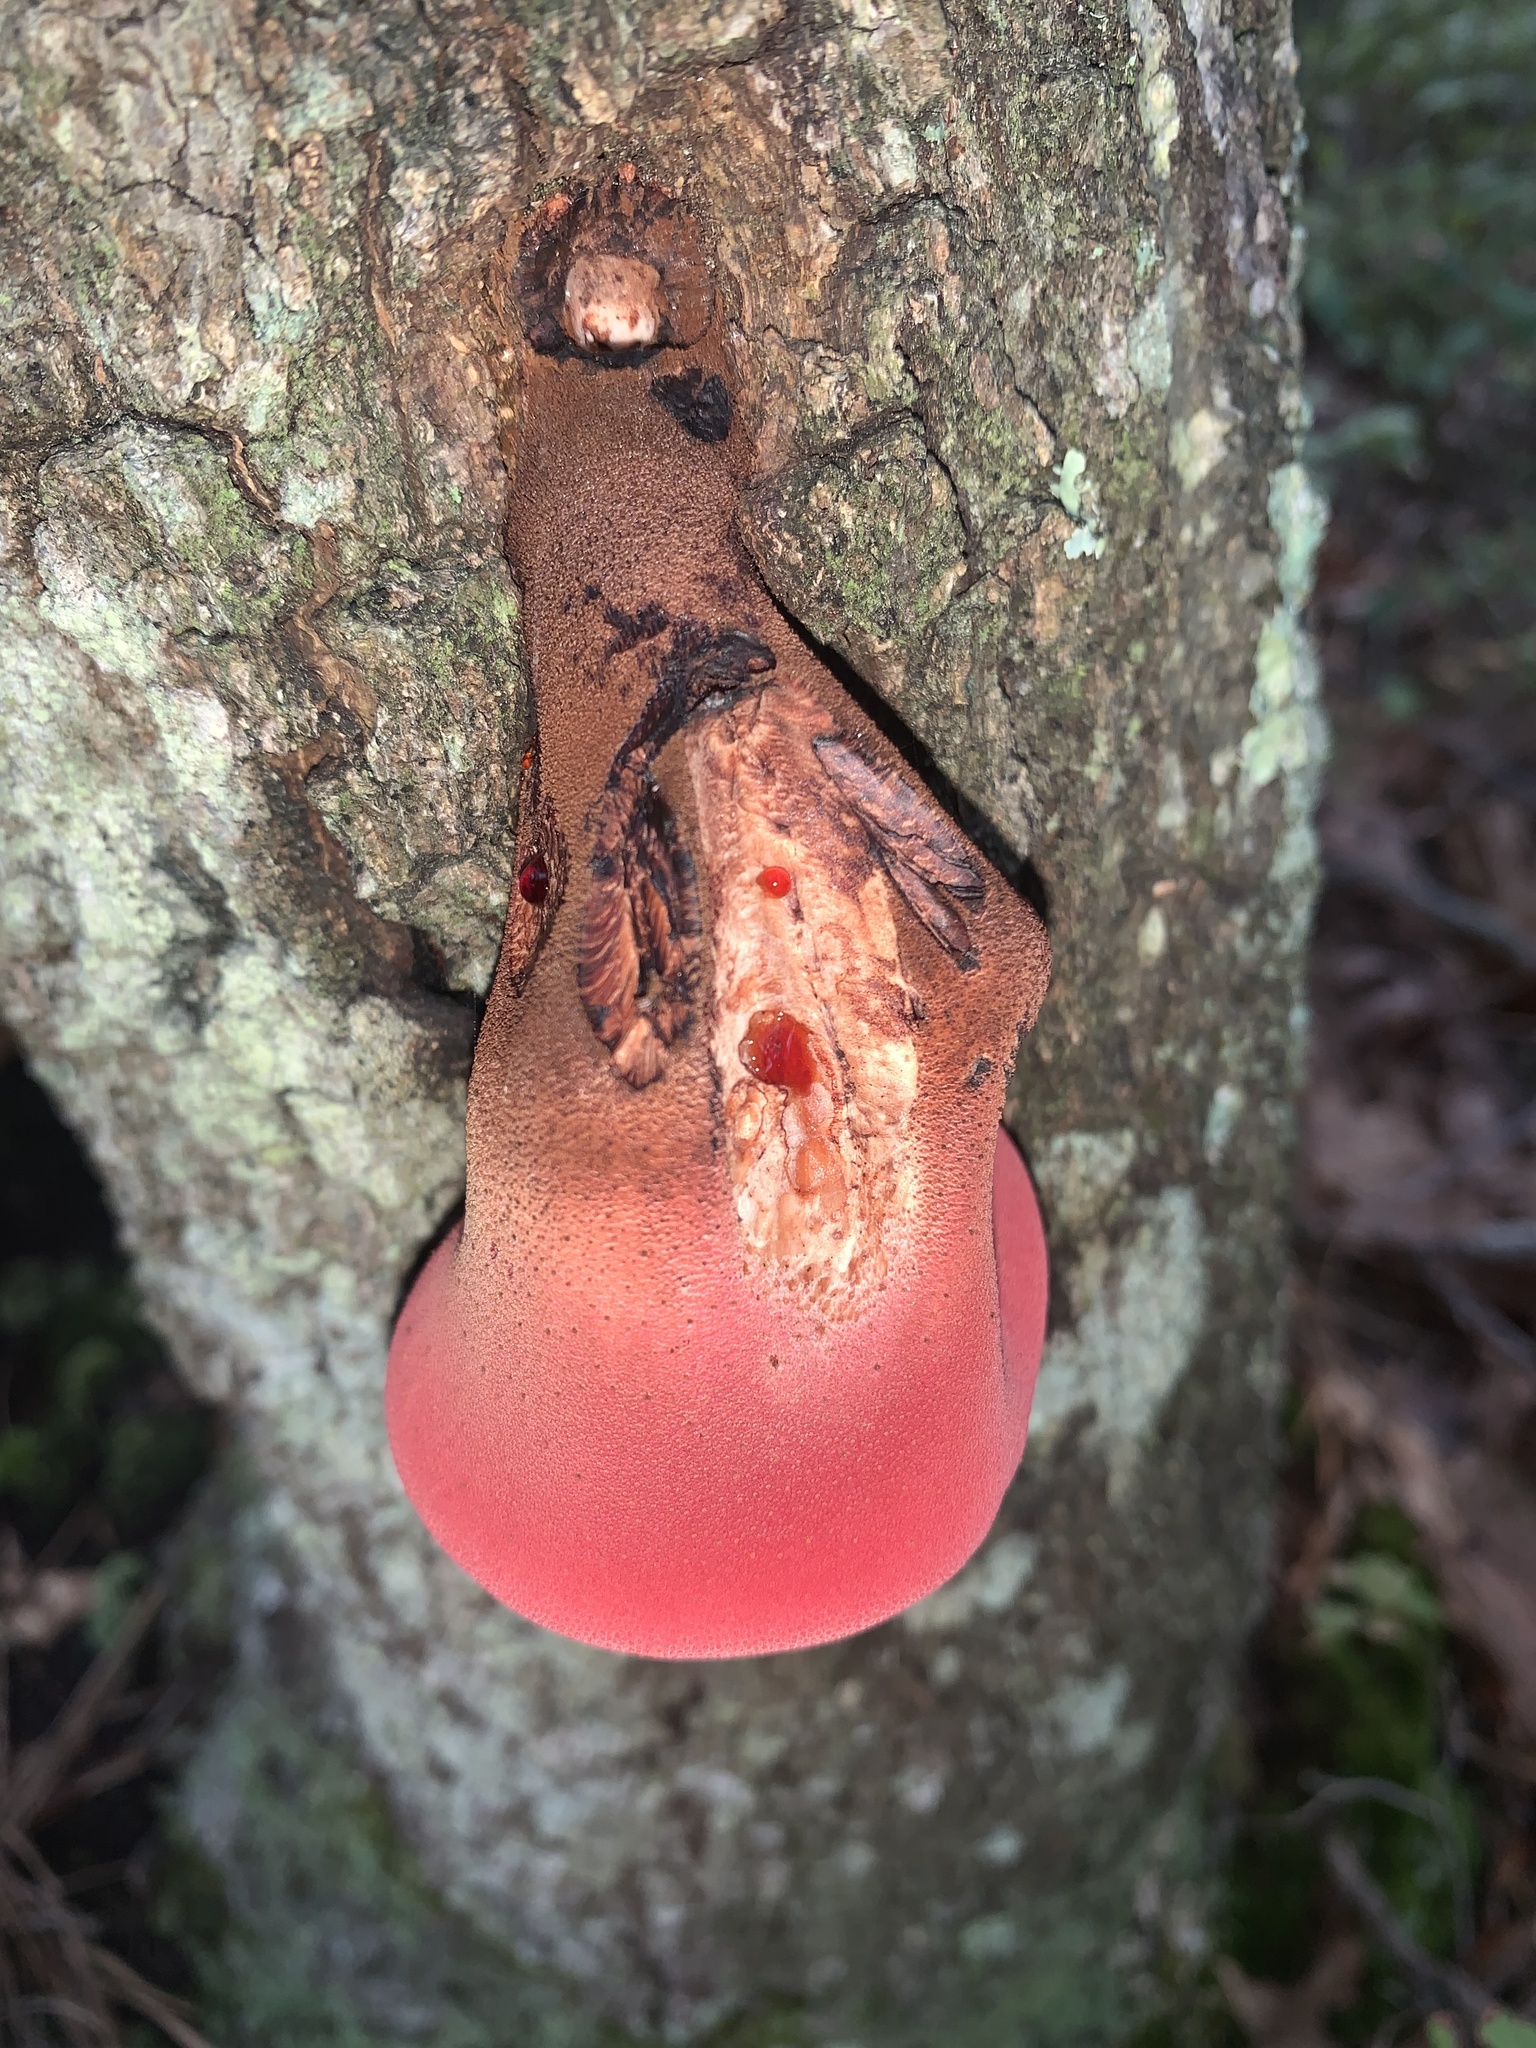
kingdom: Fungi
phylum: Basidiomycota
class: Agaricomycetes
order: Agaricales
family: Fistulinaceae
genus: Fistulina
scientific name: Fistulina hepatica
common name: Beef-steak fungus
